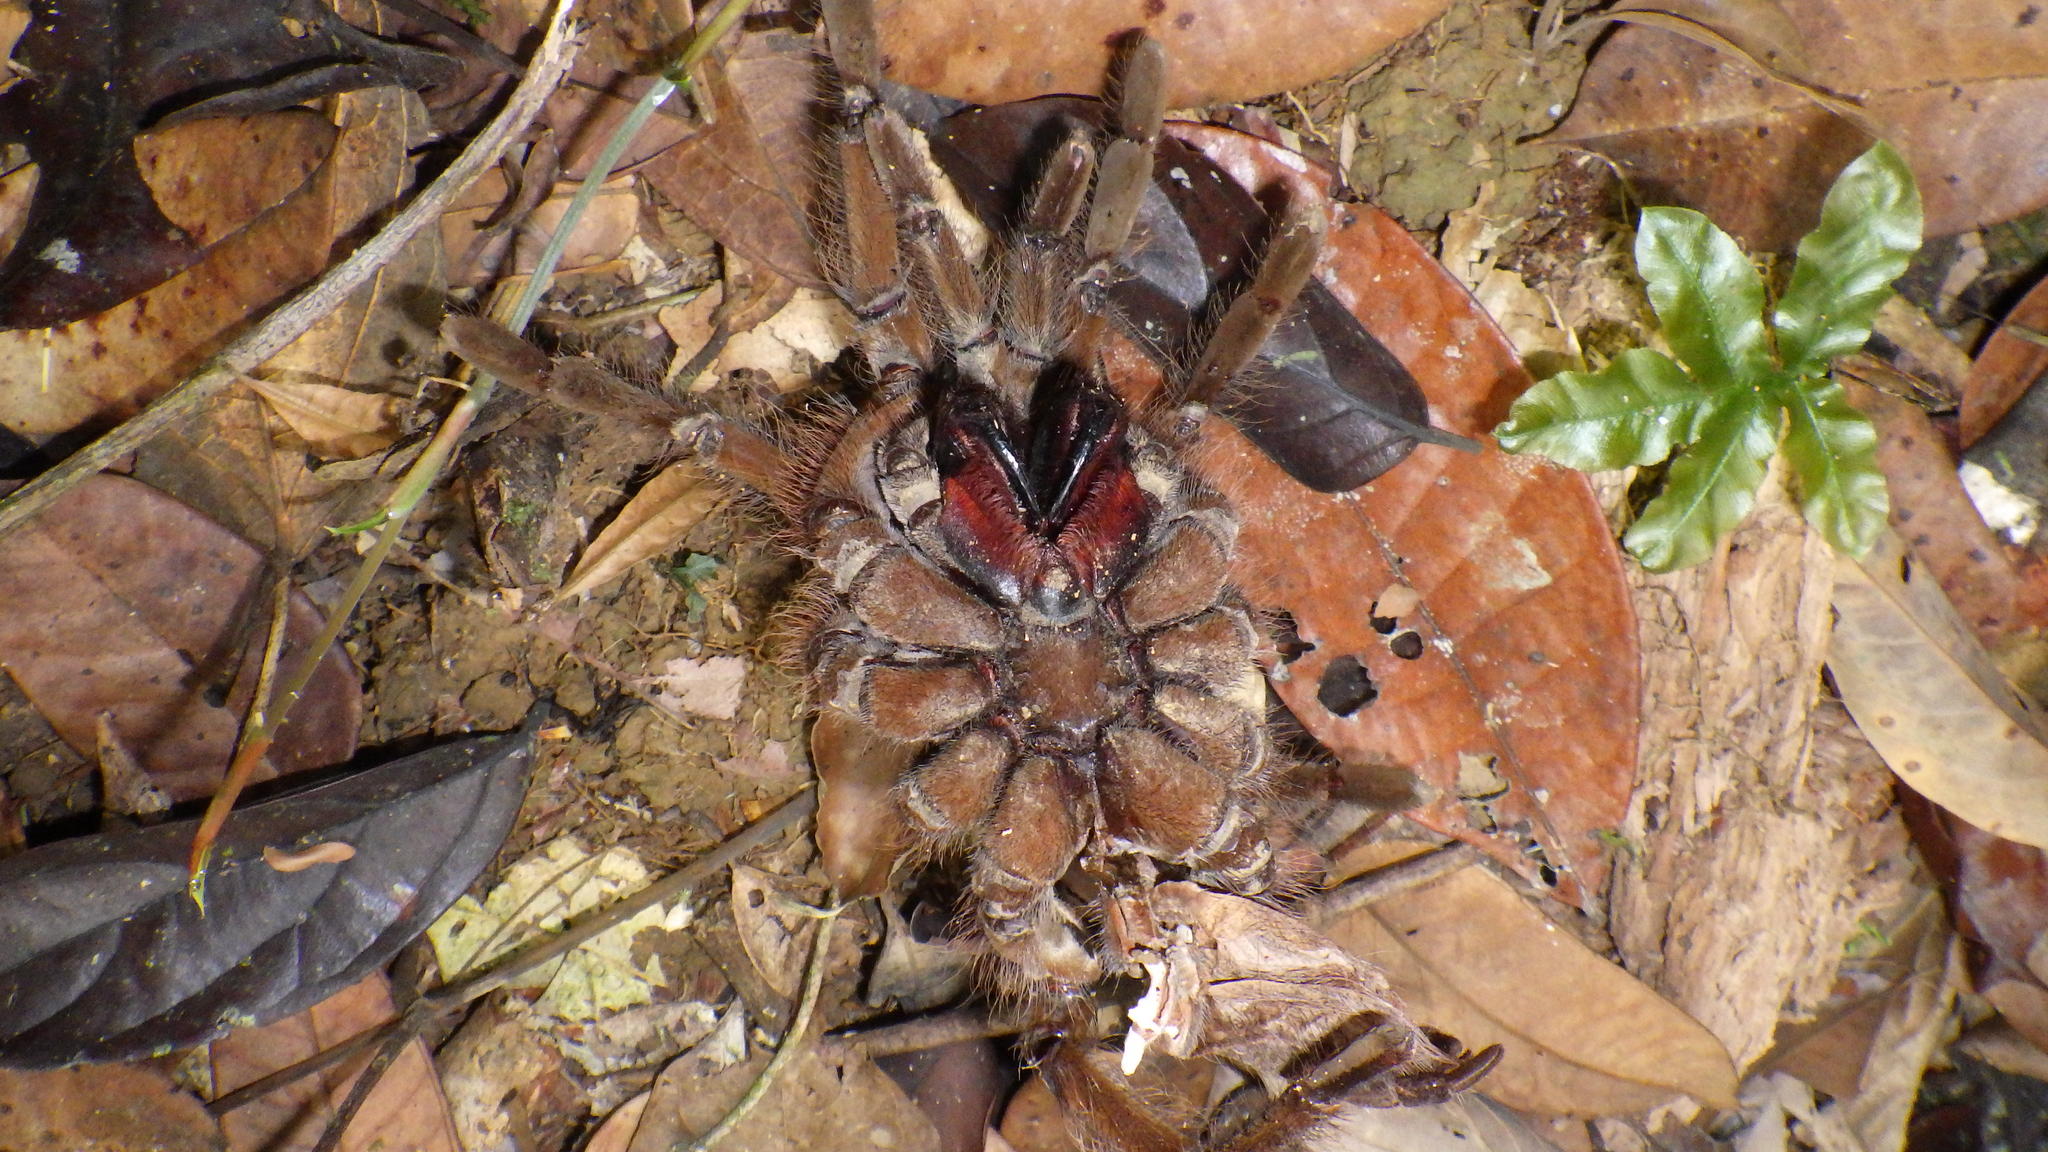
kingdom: Animalia
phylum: Arthropoda
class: Arachnida
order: Araneae
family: Theraphosidae
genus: Theraphosa
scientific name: Theraphosa blondi
